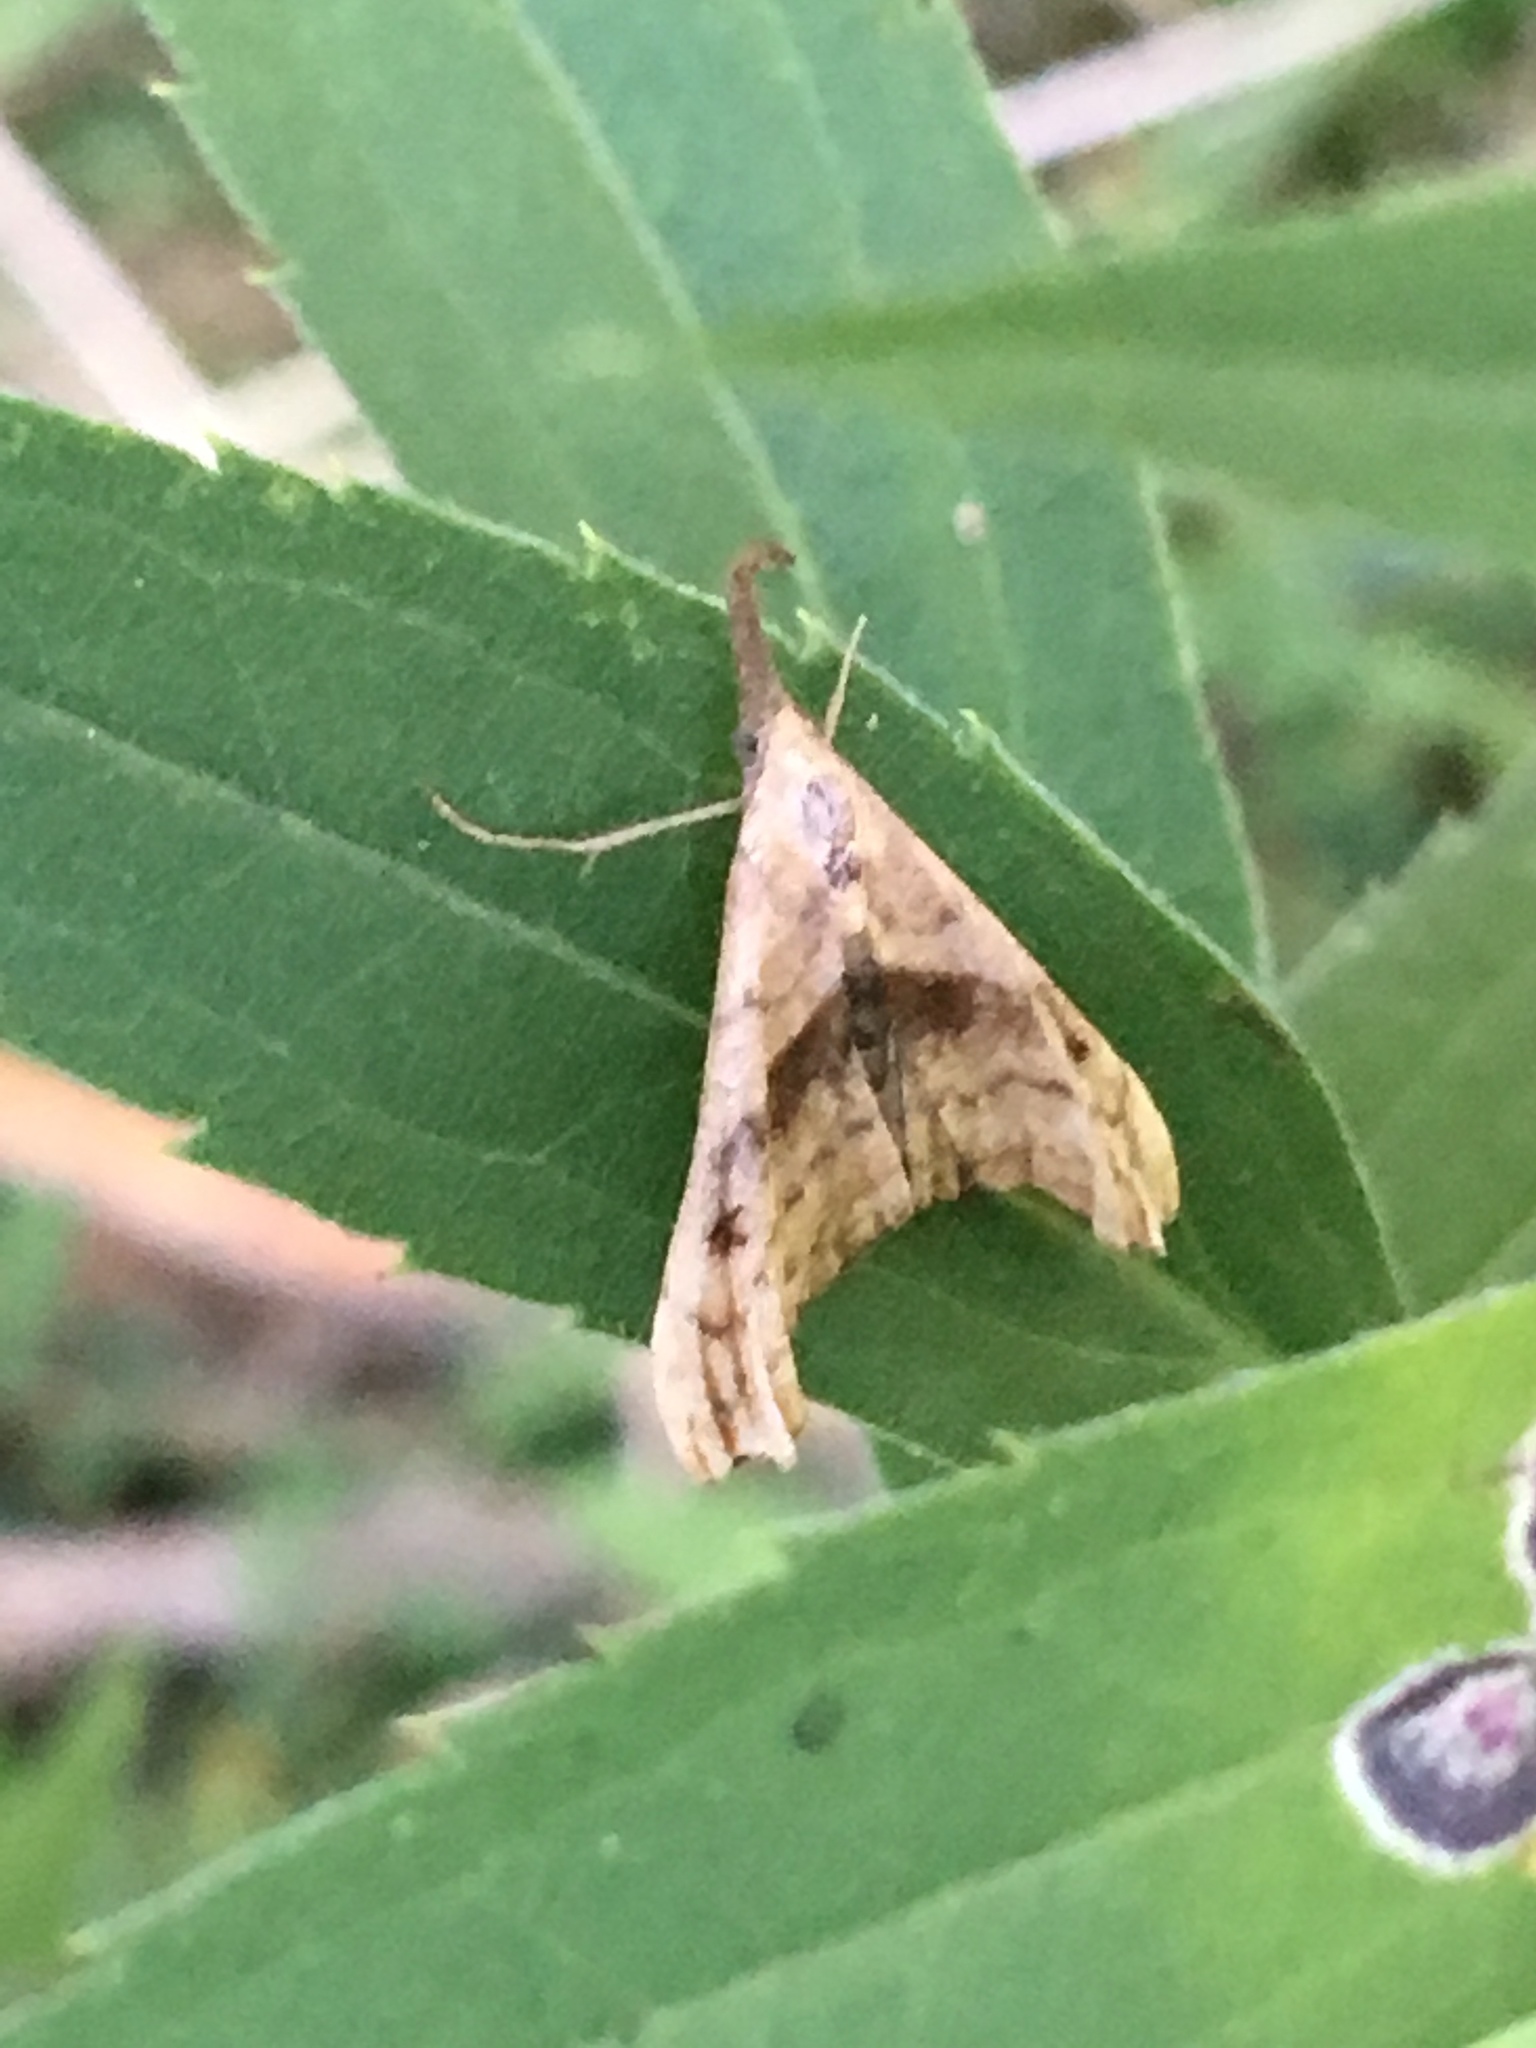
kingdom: Animalia
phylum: Arthropoda
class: Insecta
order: Lepidoptera
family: Erebidae
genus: Palthis
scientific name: Palthis angulalis
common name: Dark-spotted palthis moth
